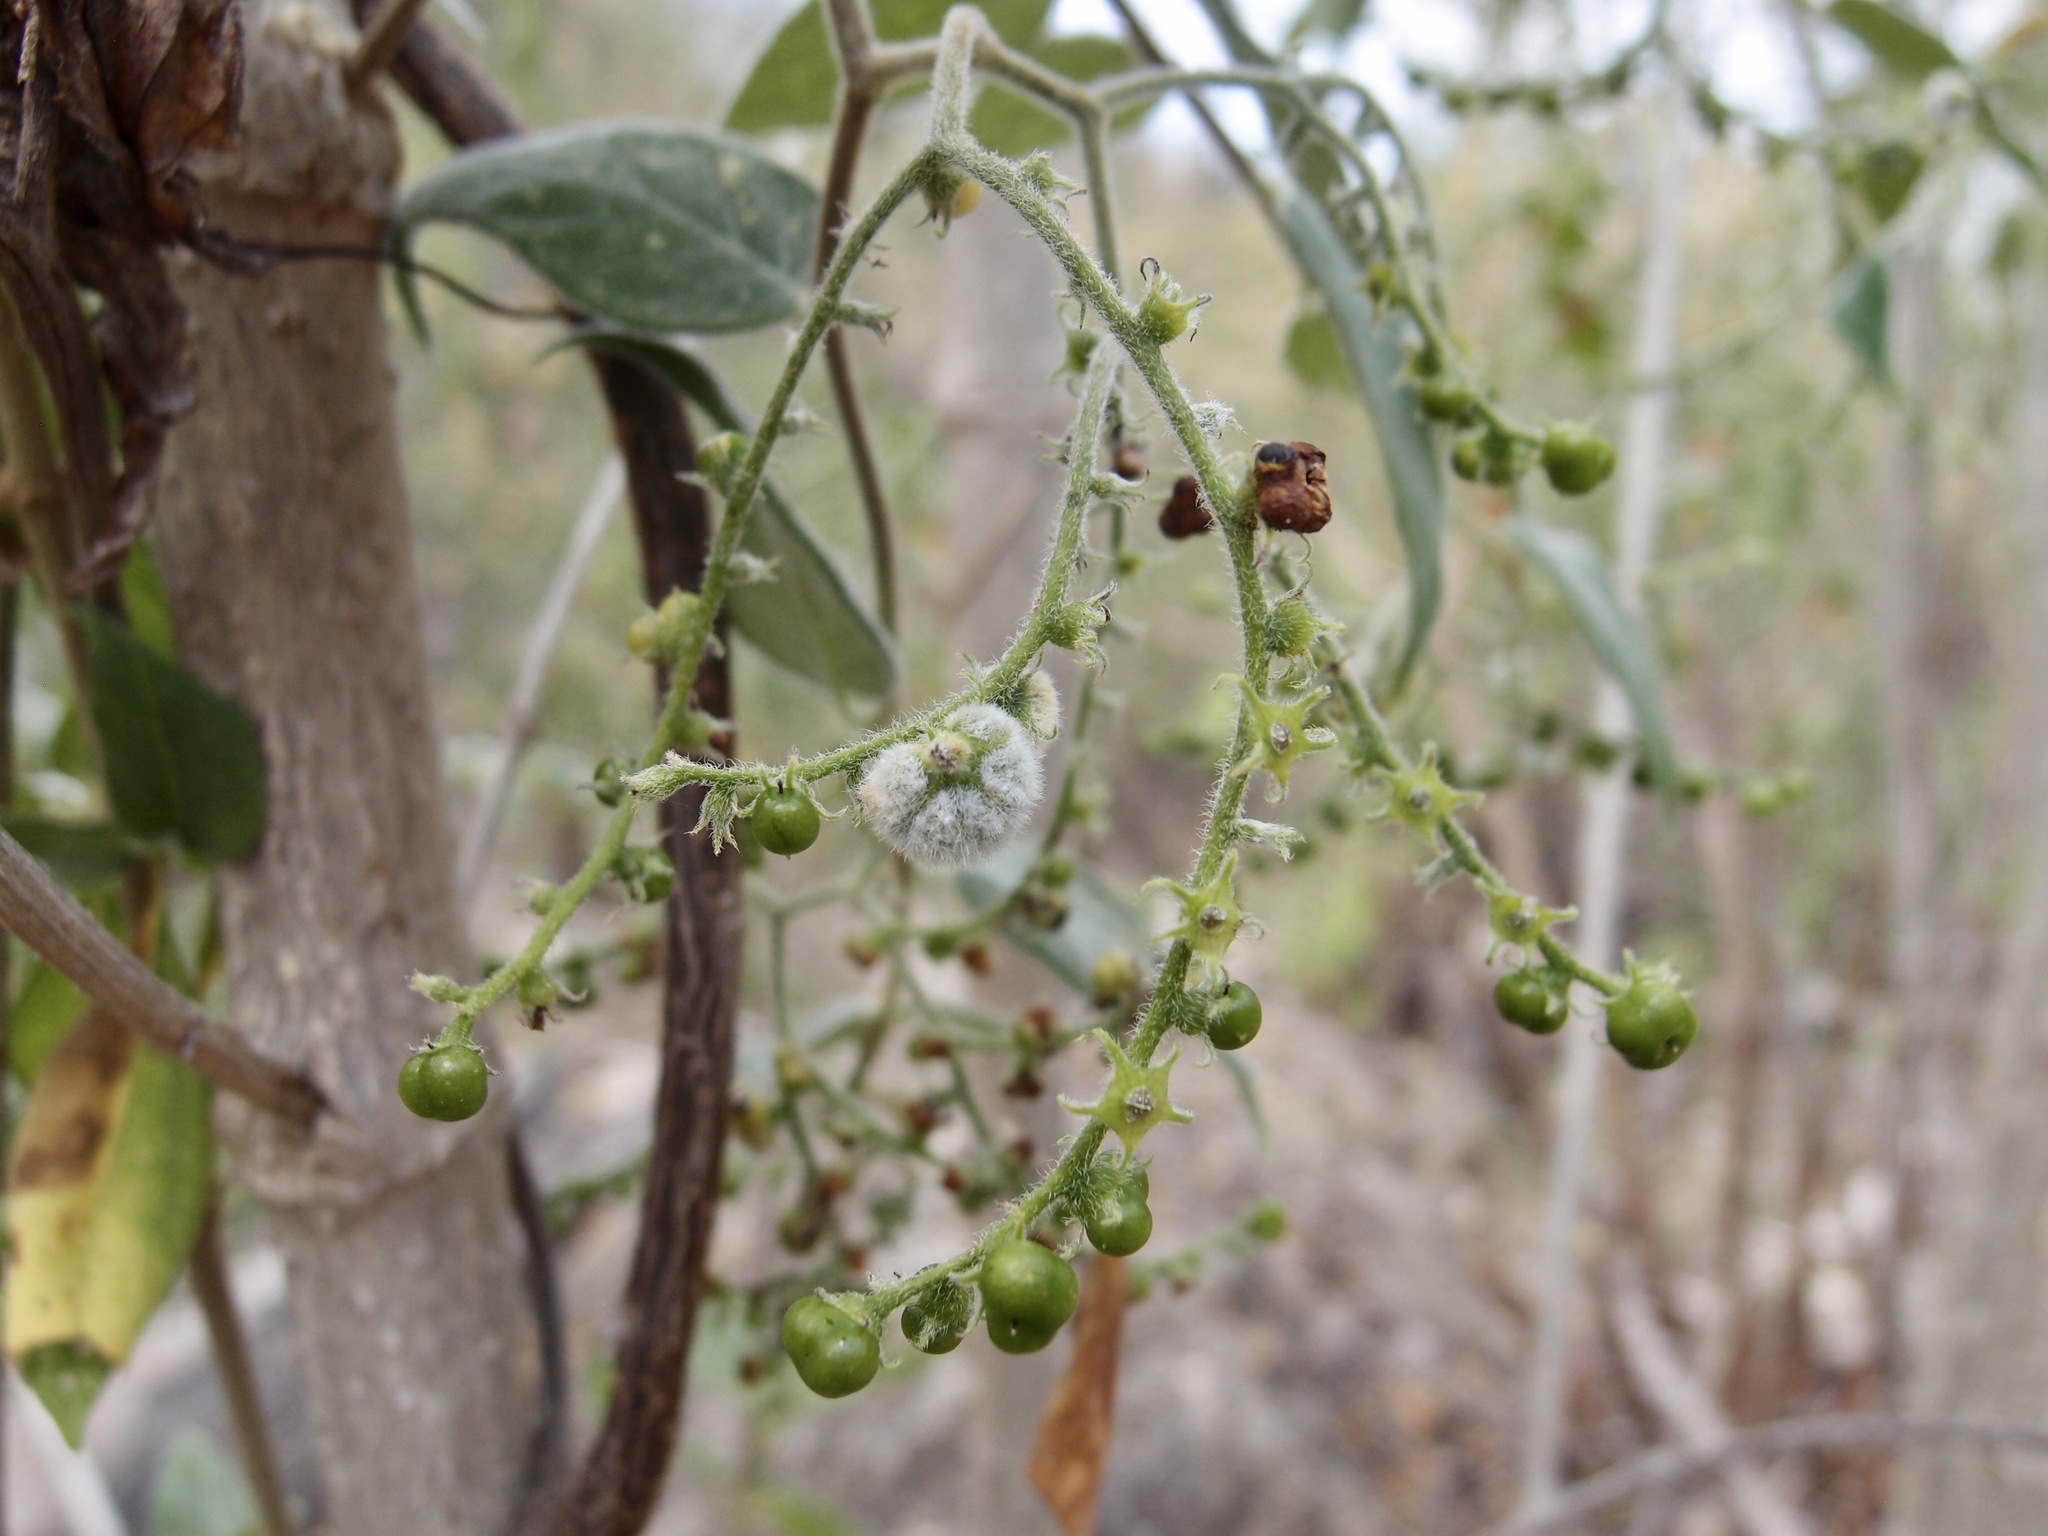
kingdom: Plantae
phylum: Tracheophyta
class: Magnoliopsida
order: Boraginales
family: Heliotropiaceae
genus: Myriopus
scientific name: Myriopus volubilis
